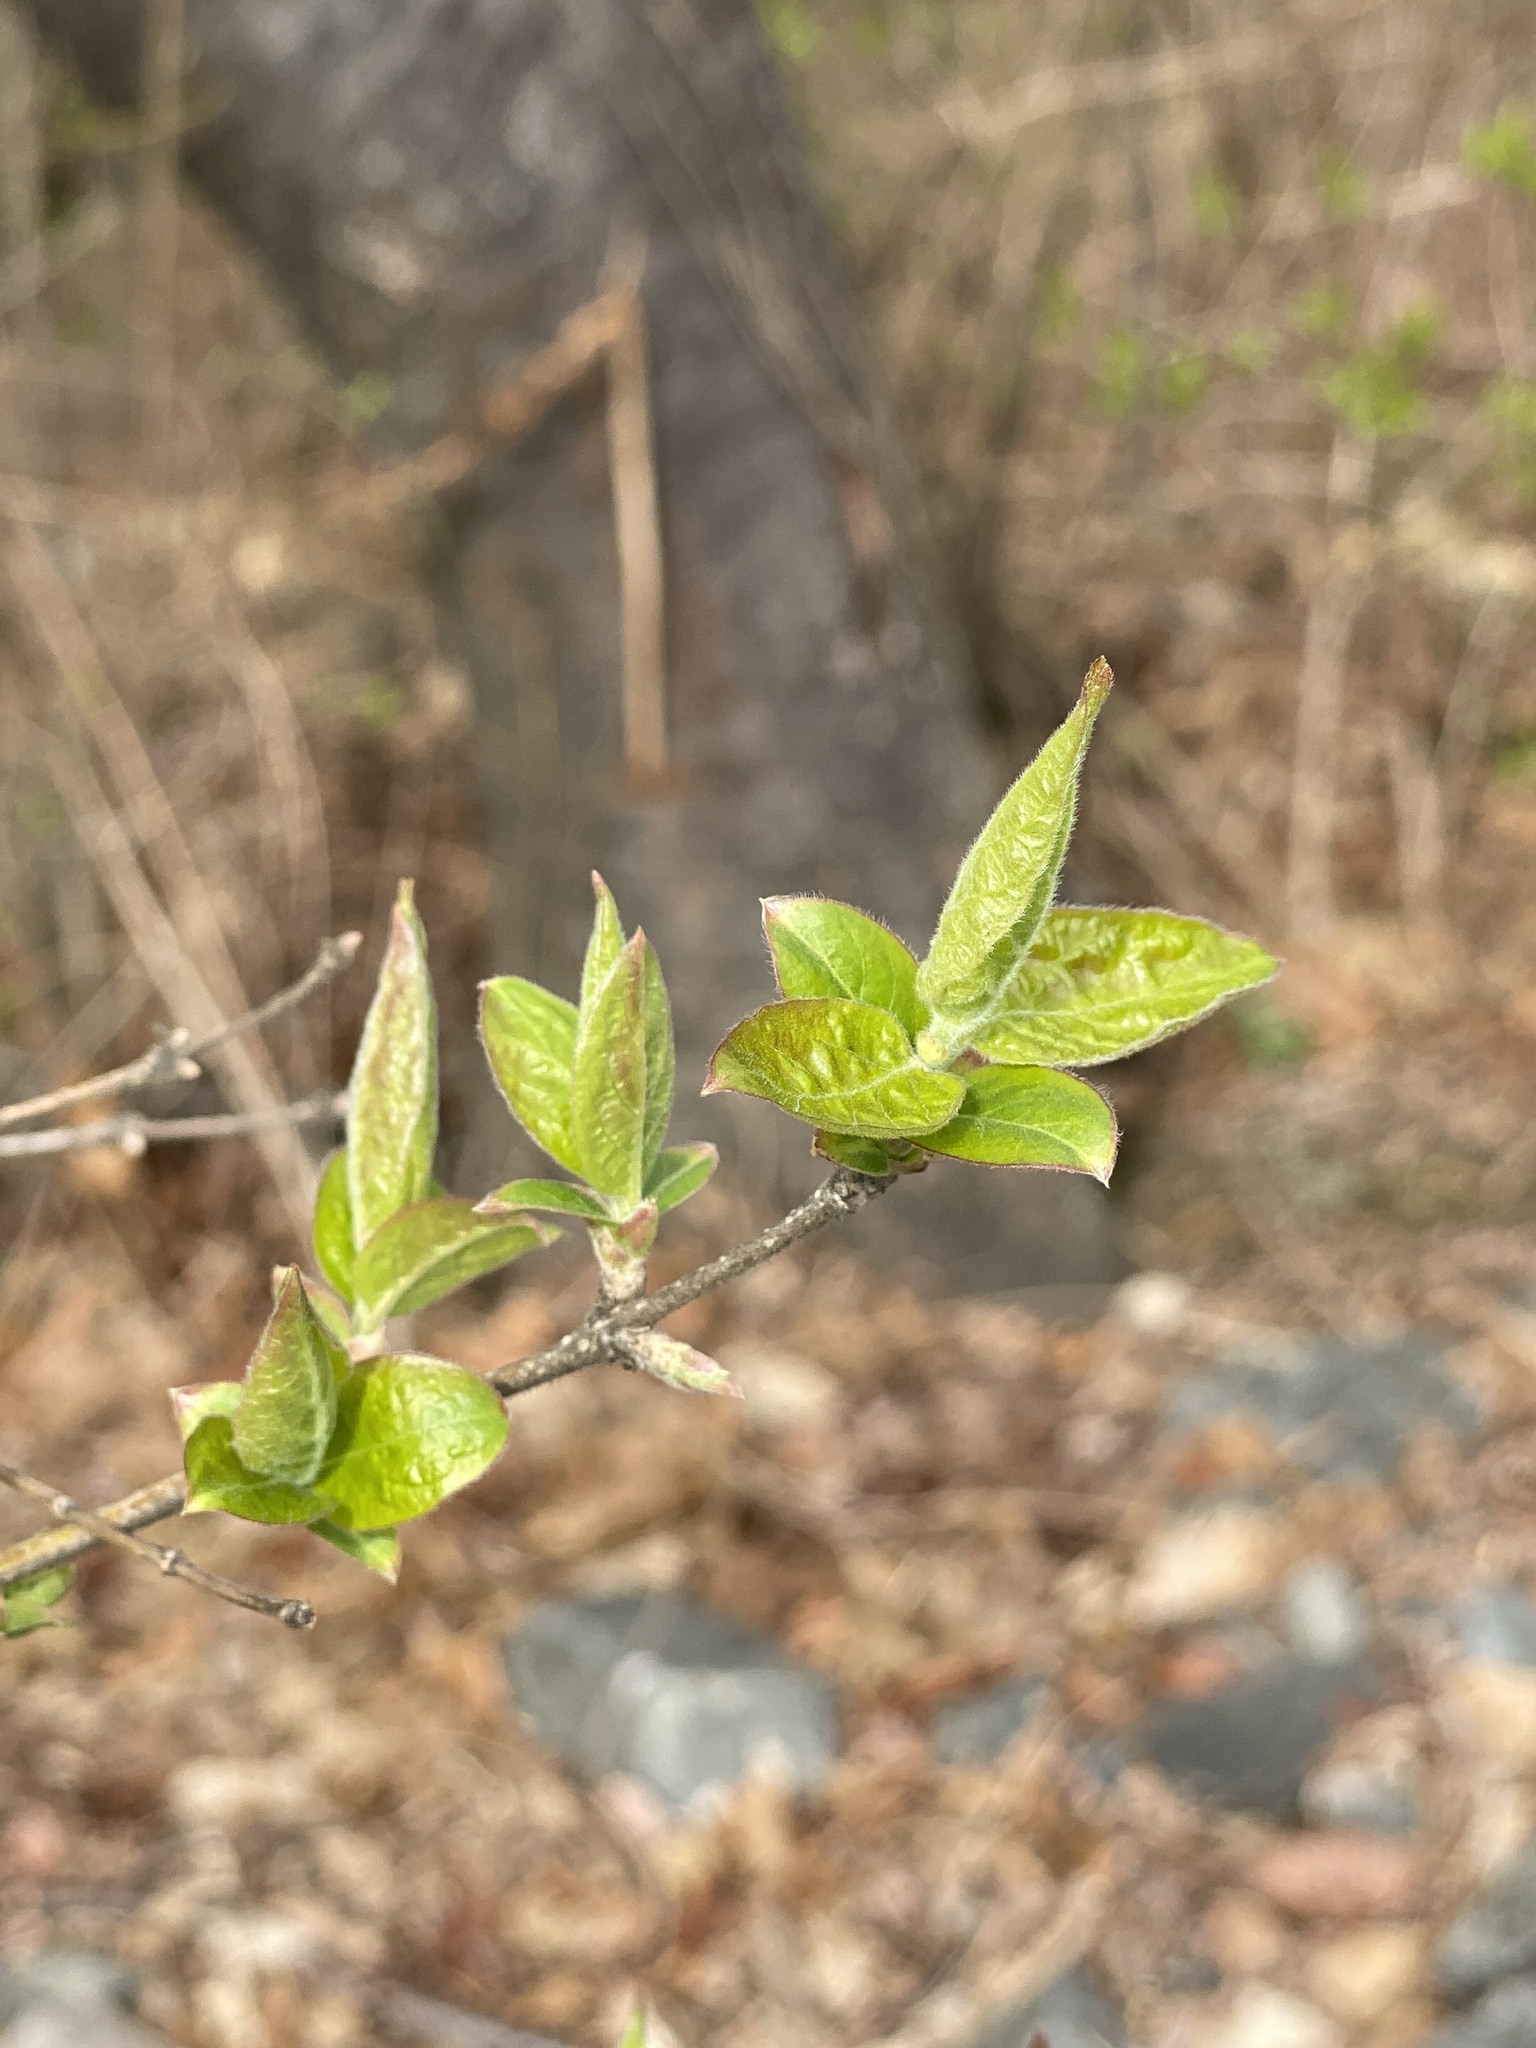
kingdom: Plantae
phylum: Tracheophyta
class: Magnoliopsida
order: Dipsacales
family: Caprifoliaceae
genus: Lonicera
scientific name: Lonicera maackii
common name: Amur honeysuckle
